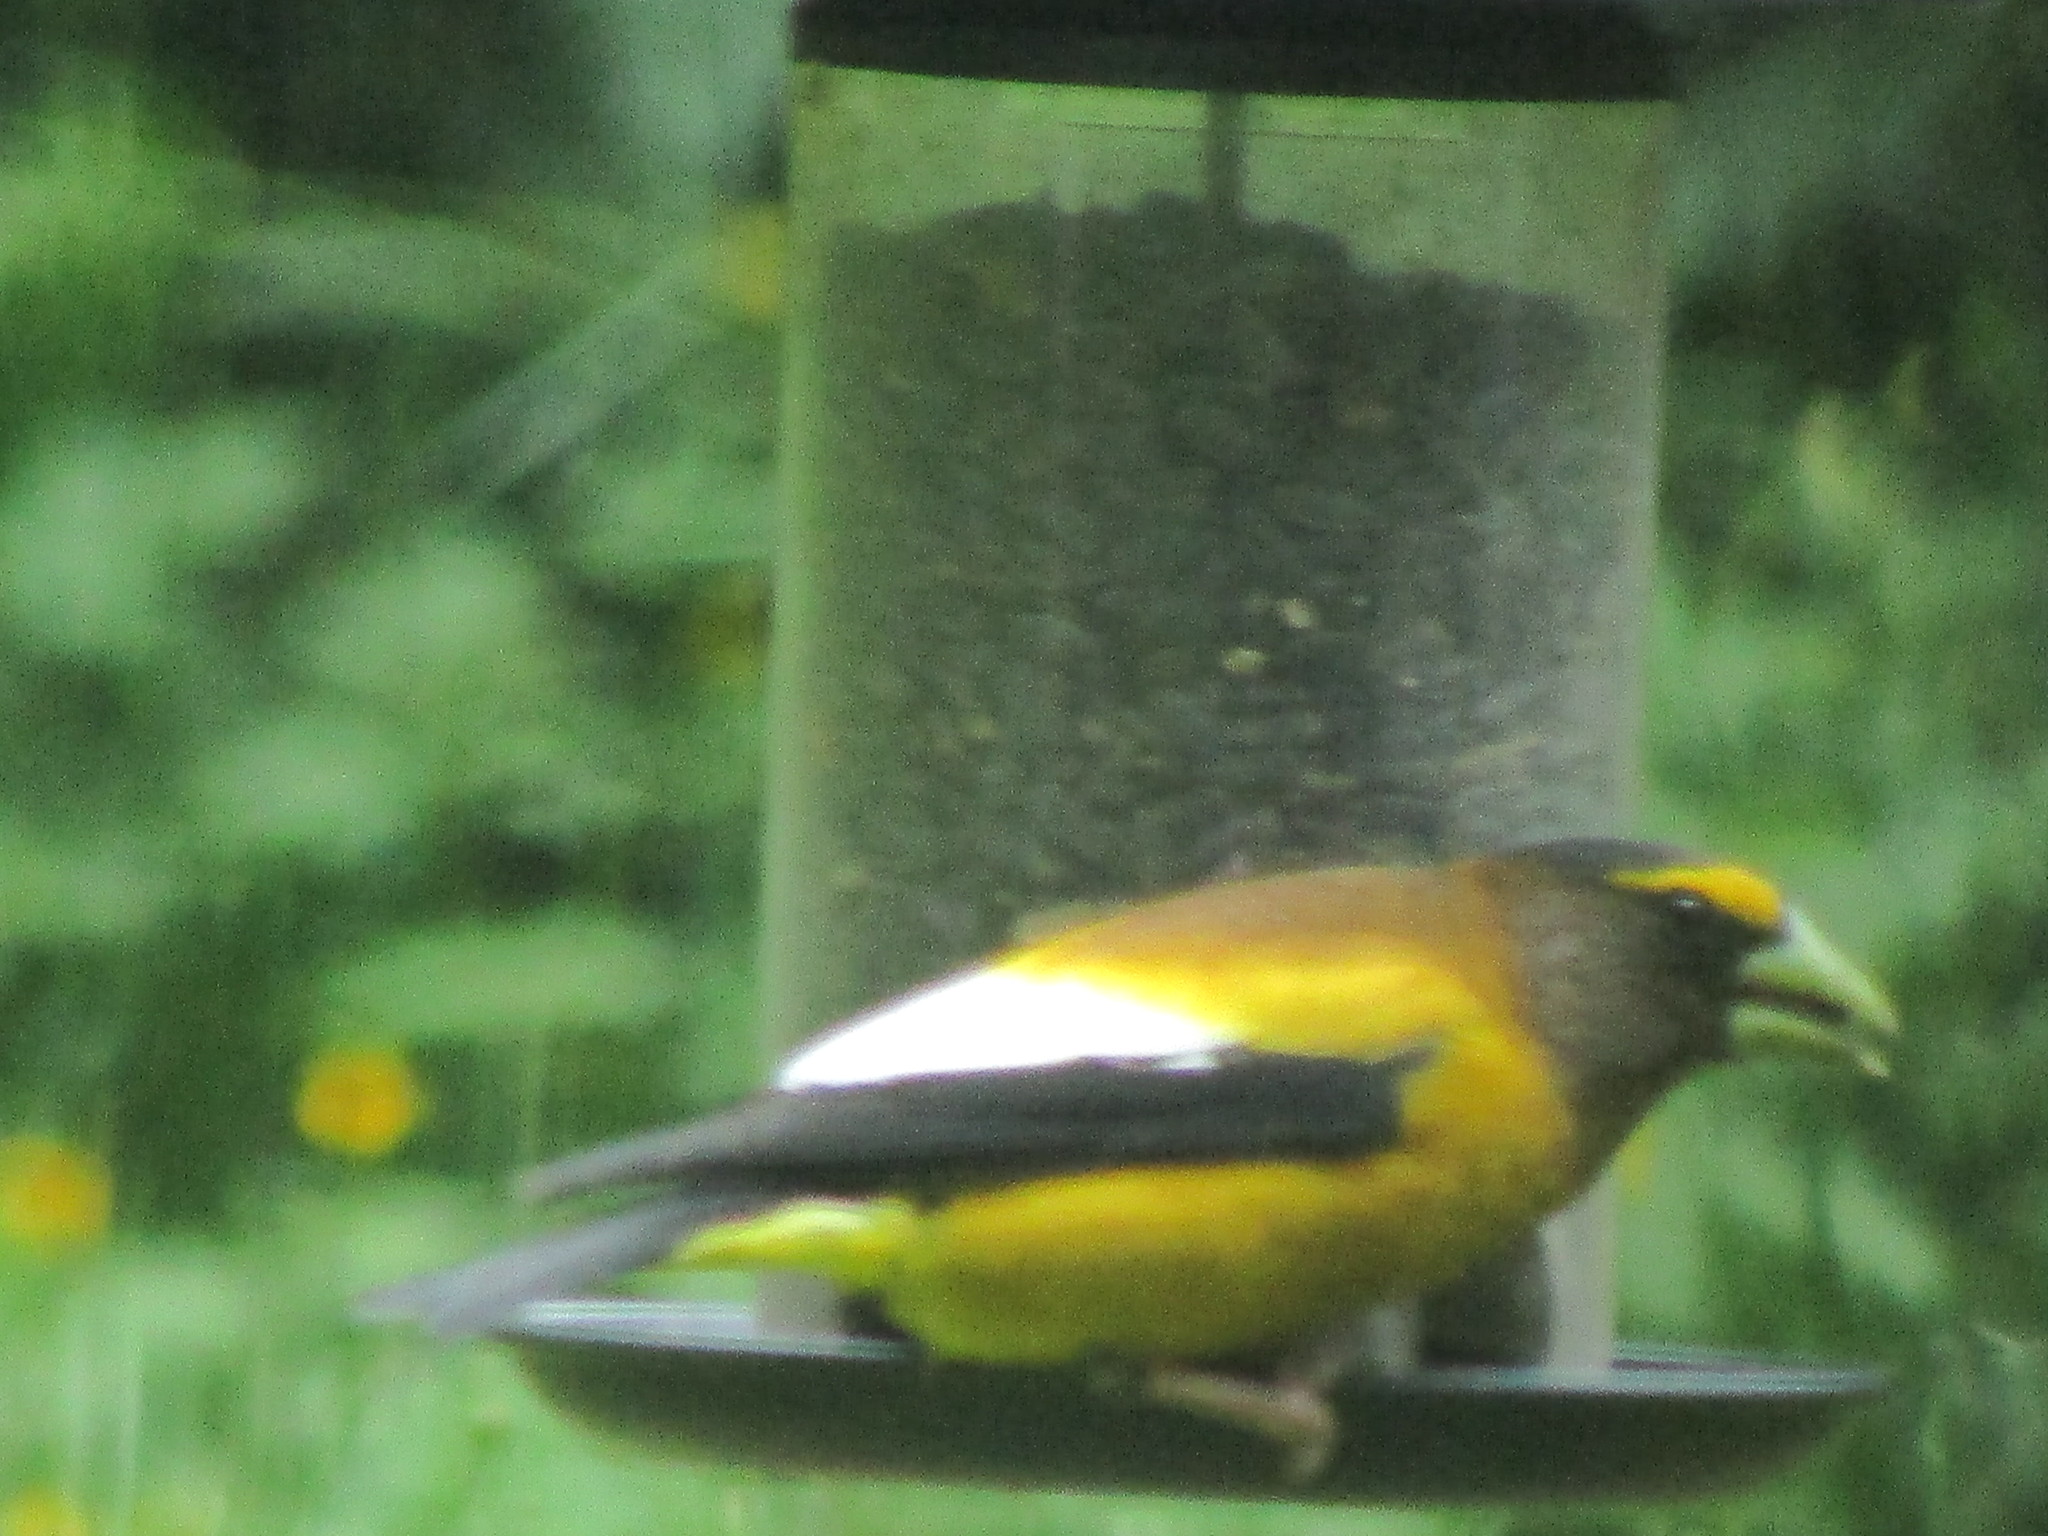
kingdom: Animalia
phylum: Chordata
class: Aves
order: Passeriformes
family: Fringillidae
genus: Hesperiphona
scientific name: Hesperiphona vespertina
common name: Evening grosbeak
